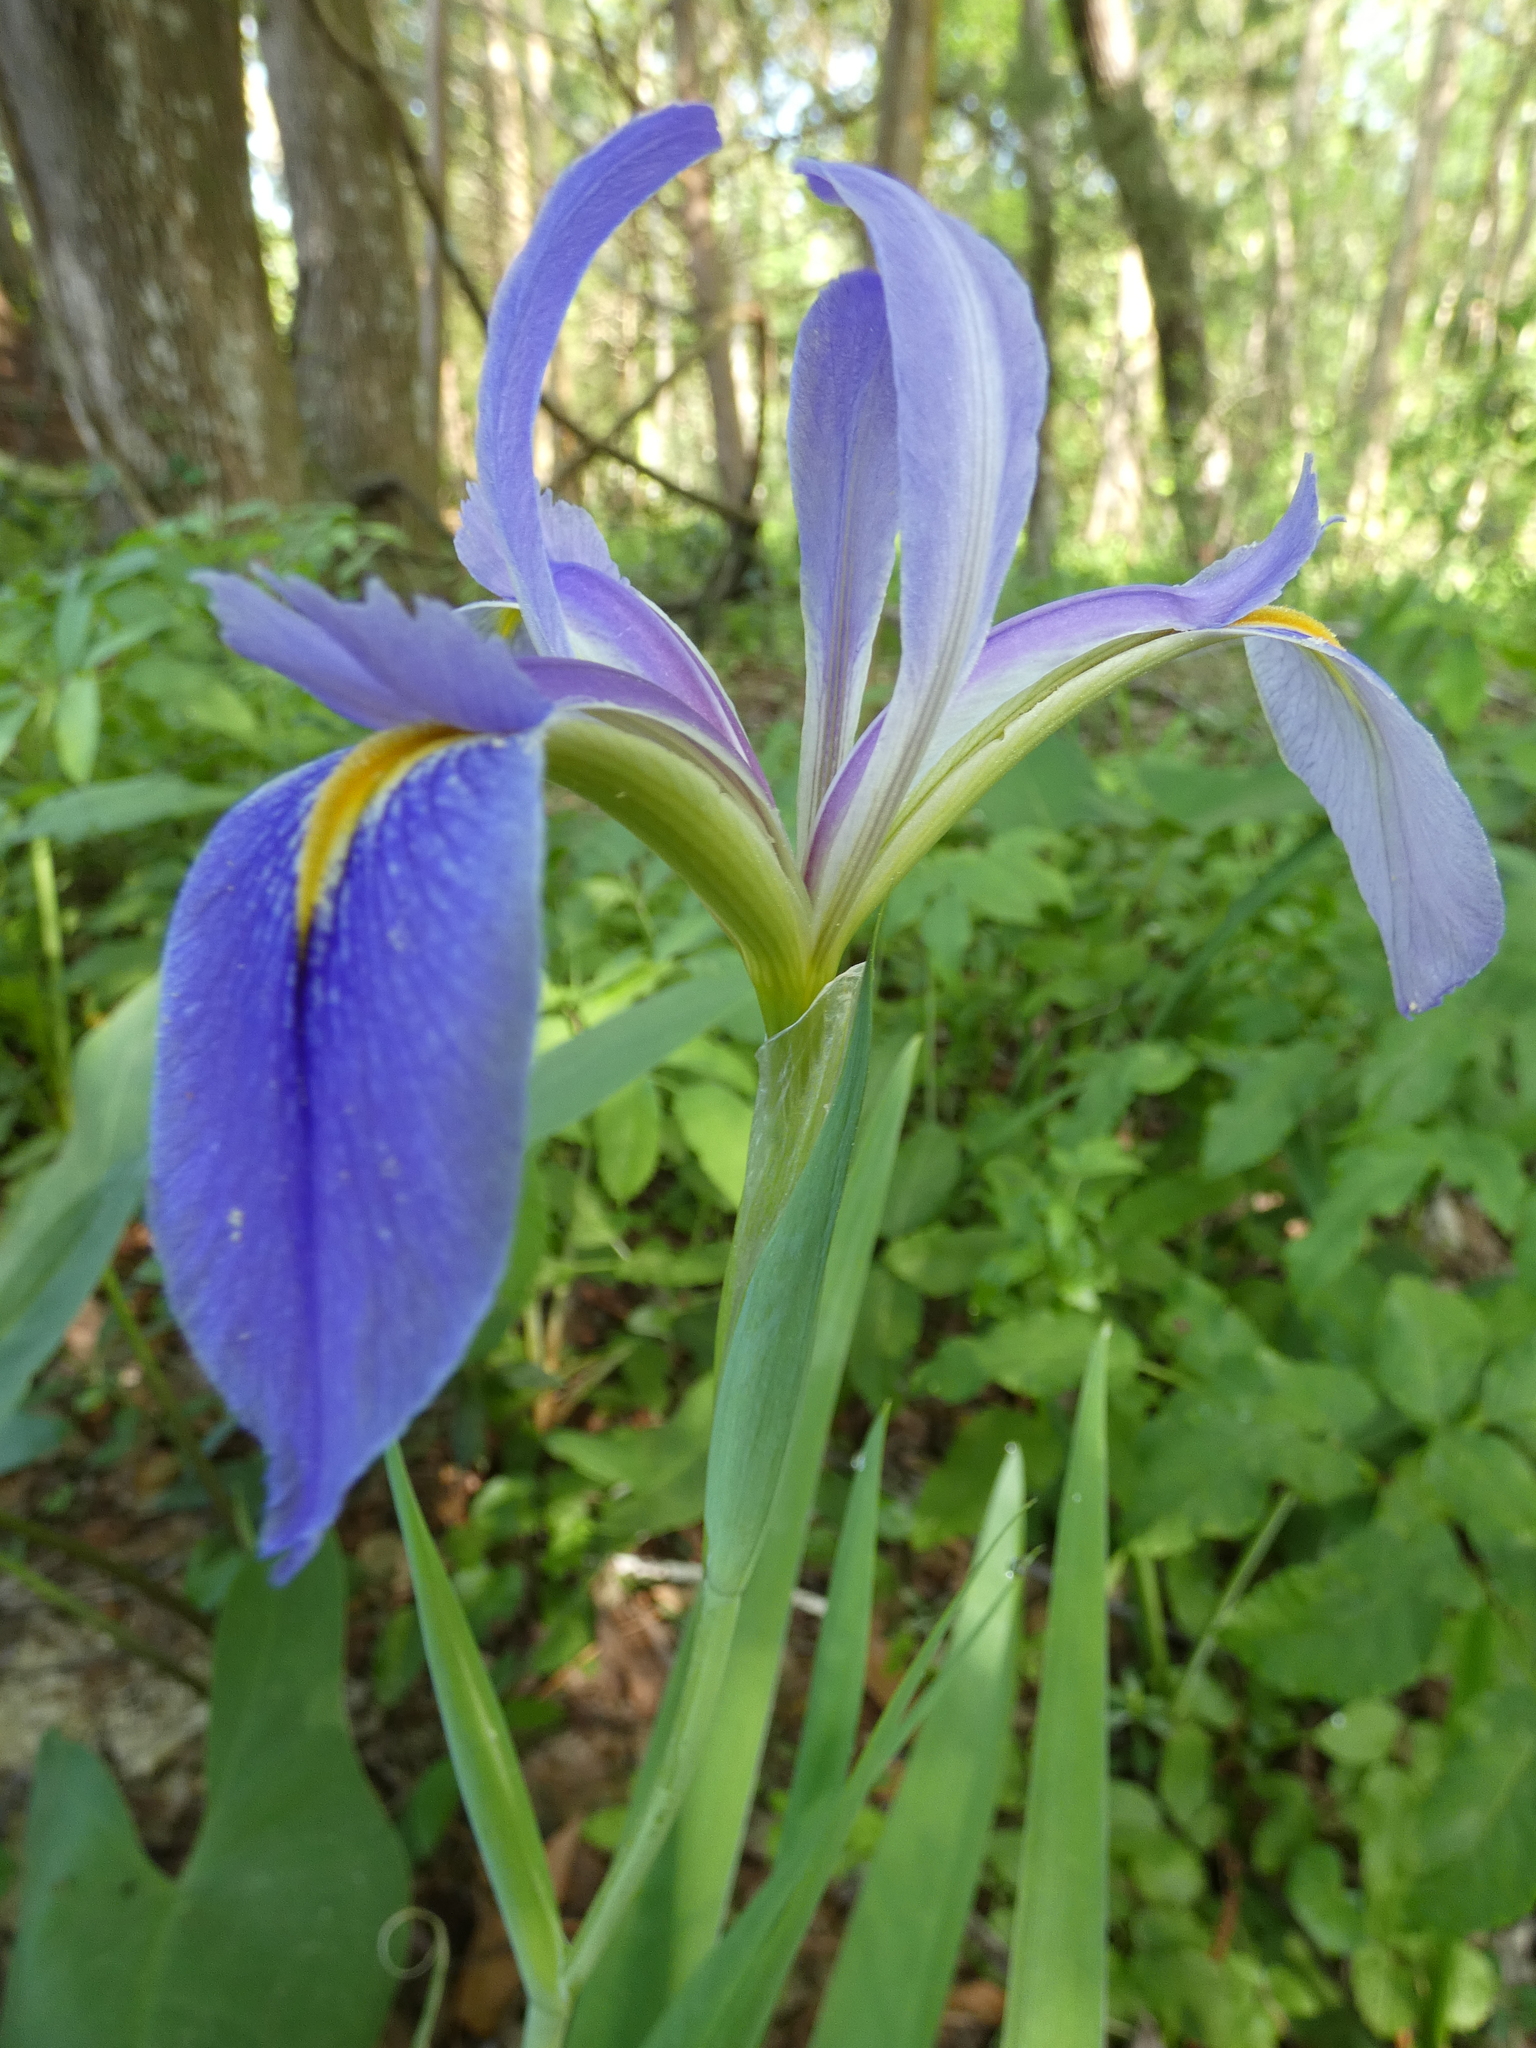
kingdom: Plantae
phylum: Tracheophyta
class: Liliopsida
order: Asparagales
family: Iridaceae
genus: Iris
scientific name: Iris virginica
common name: Southern blue flag
